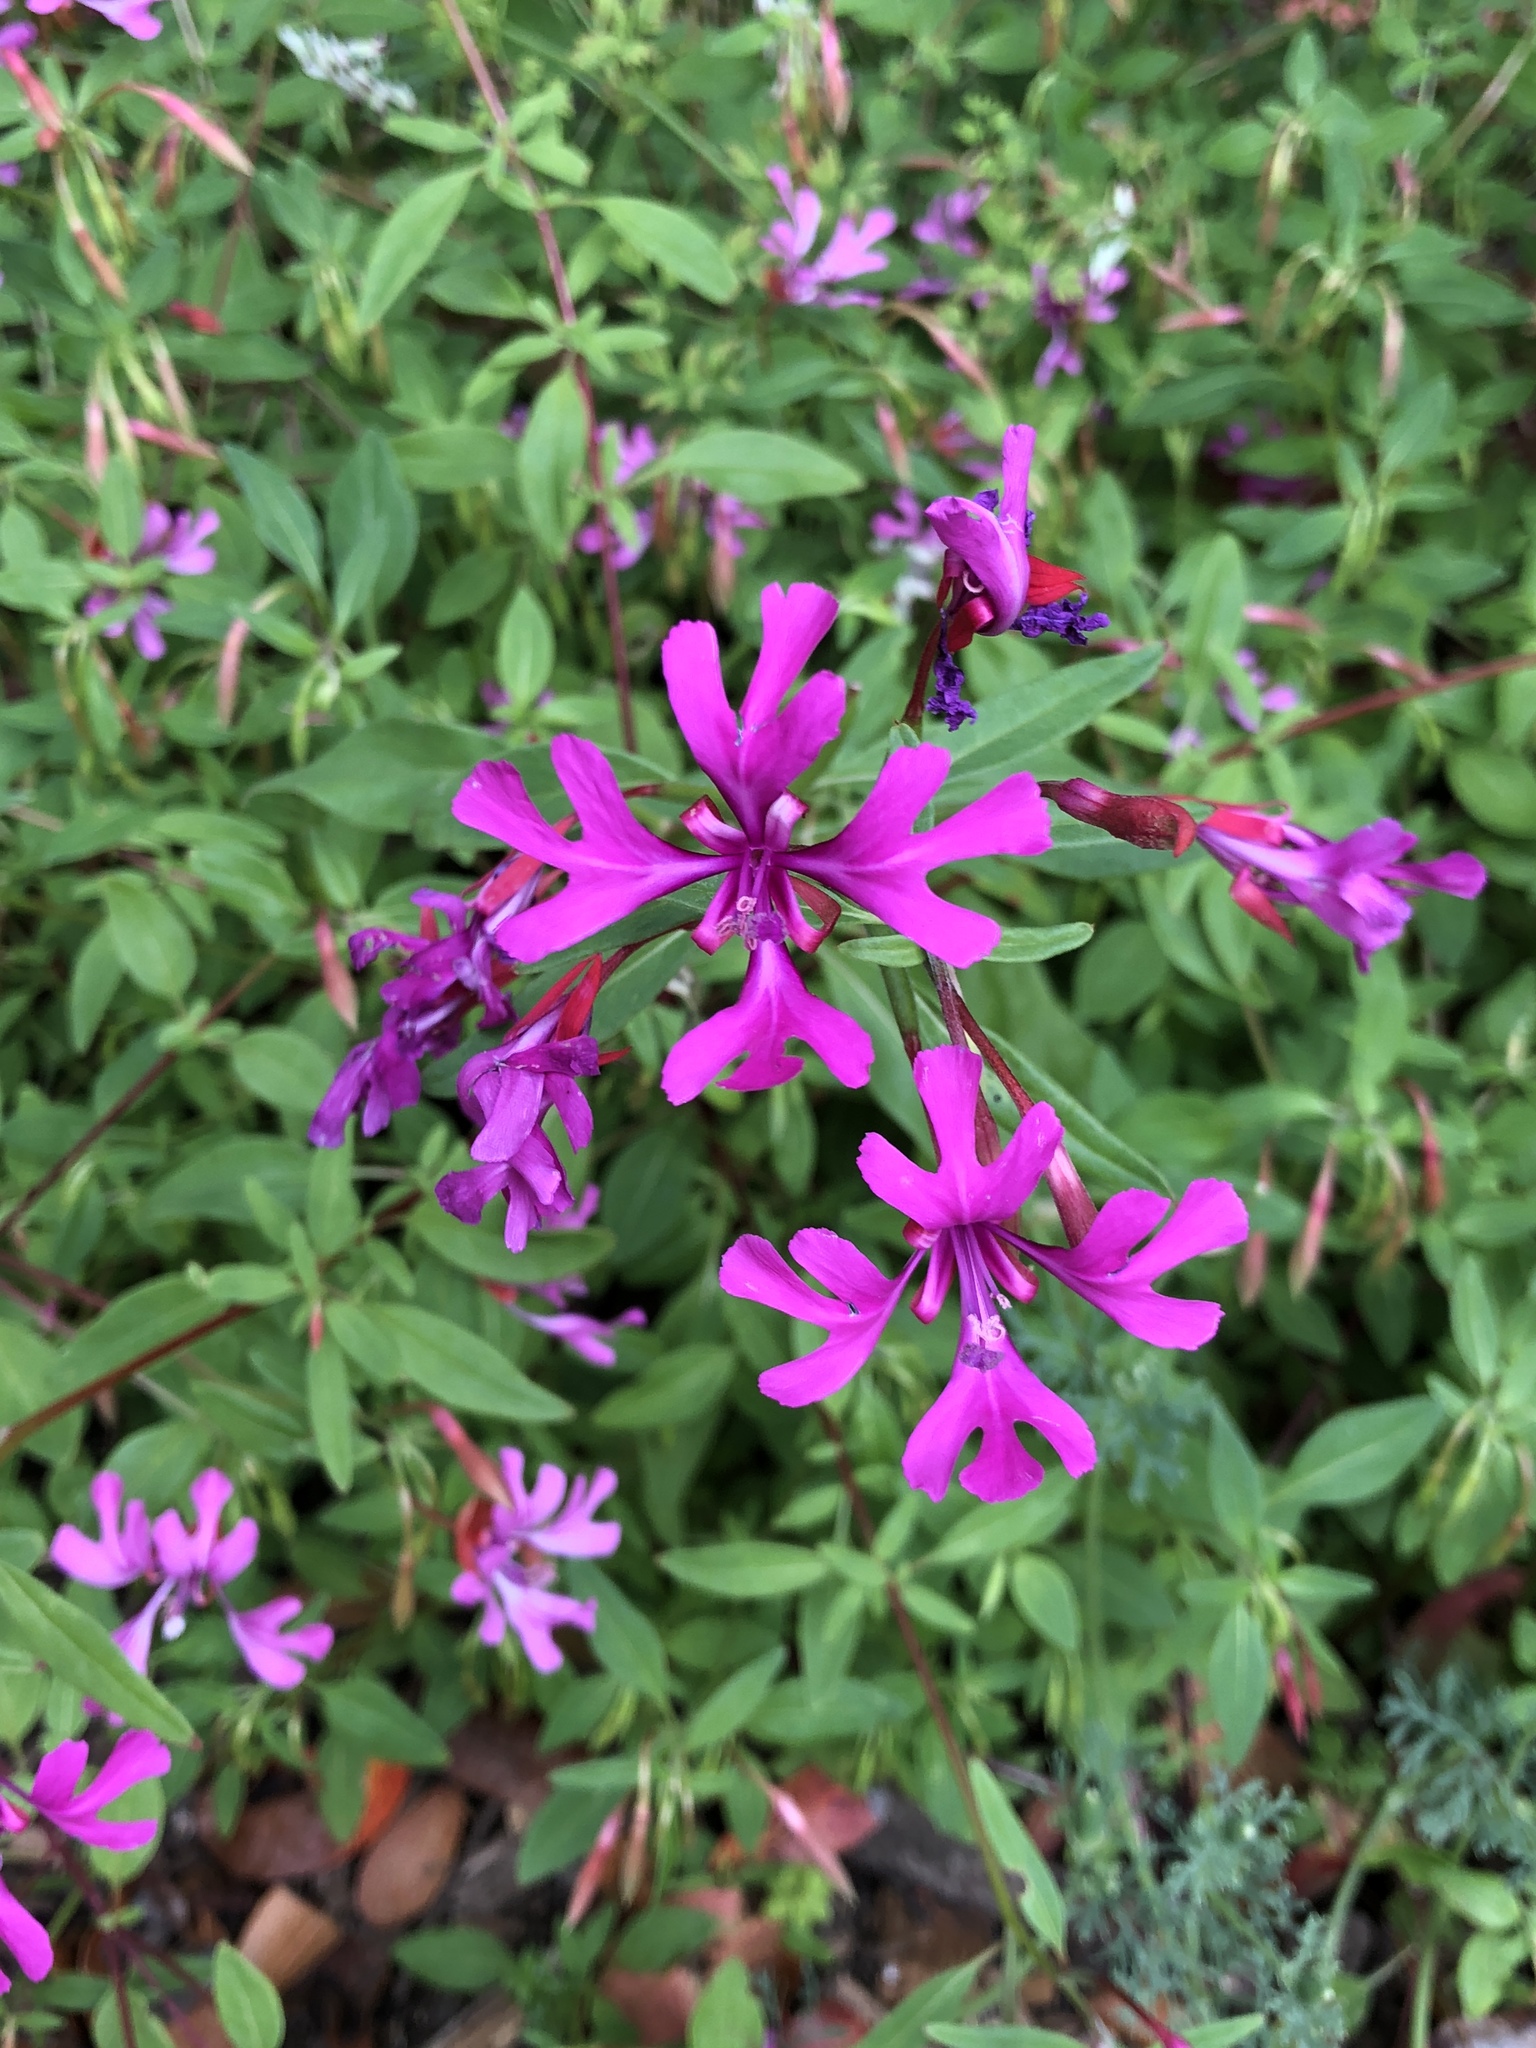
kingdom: Plantae
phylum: Tracheophyta
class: Magnoliopsida
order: Myrtales
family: Onagraceae
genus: Clarkia
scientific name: Clarkia concinna
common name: Red-ribbons
